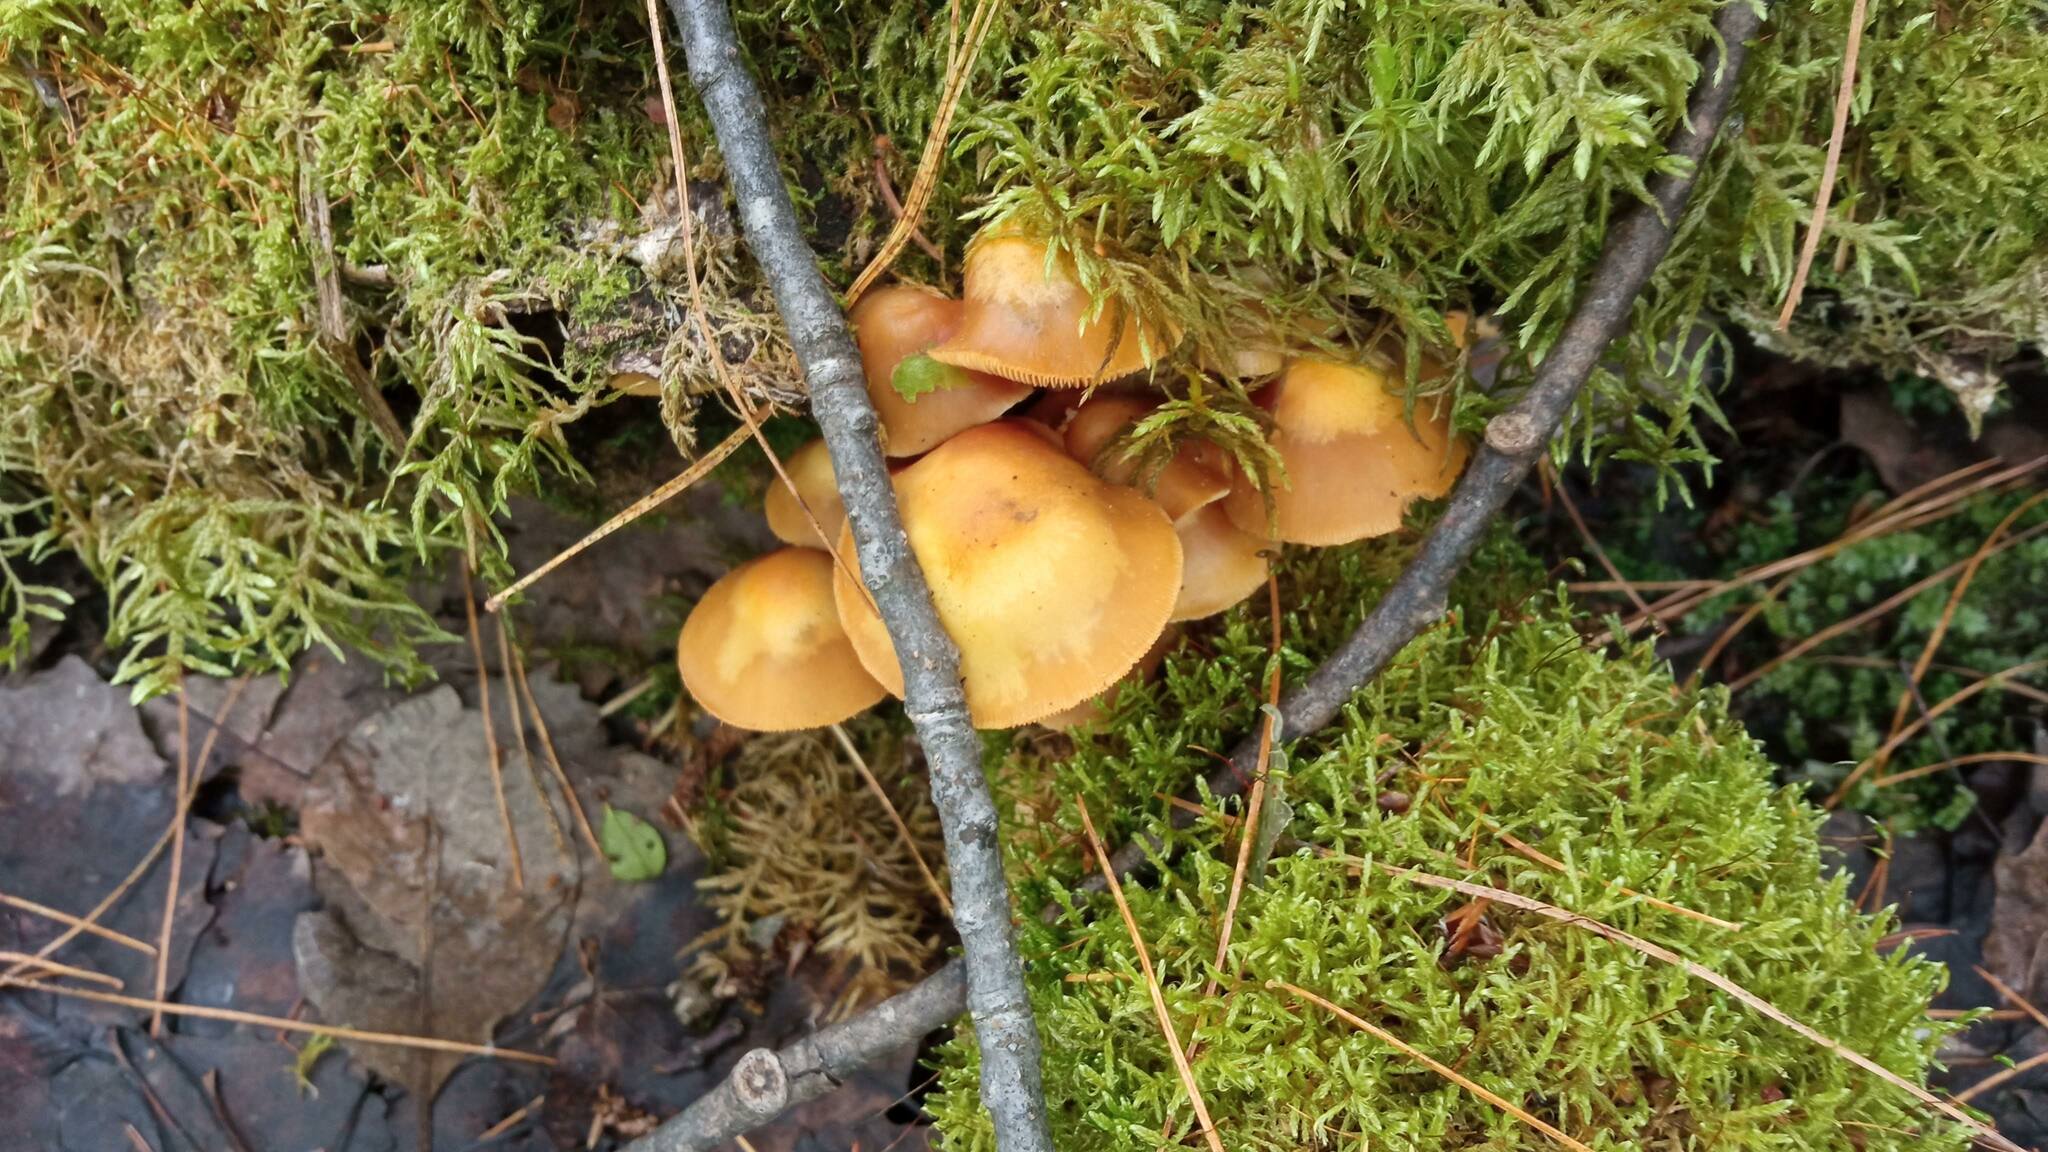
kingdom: Fungi
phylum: Basidiomycota
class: Agaricomycetes
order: Agaricales
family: Strophariaceae
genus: Kuehneromyces
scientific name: Kuehneromyces mutabilis
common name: Sheathed woodtuft
